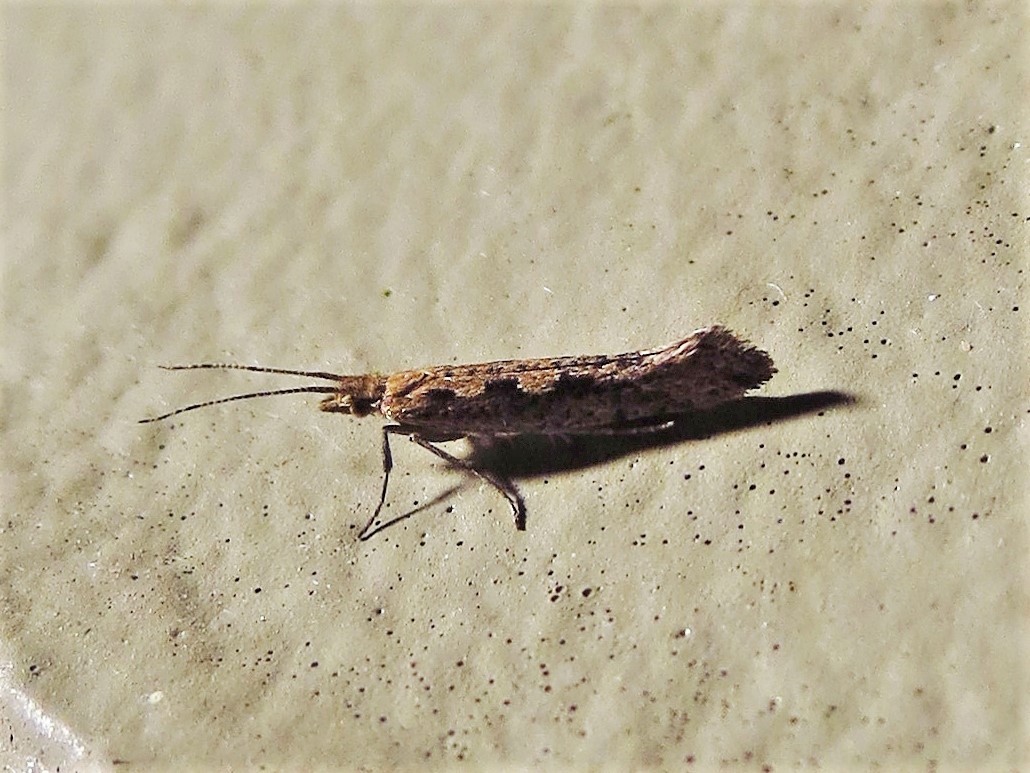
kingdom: Animalia
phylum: Arthropoda
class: Insecta
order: Lepidoptera
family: Plutellidae
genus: Plutella
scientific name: Plutella xylostella
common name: Diamond-back moth
